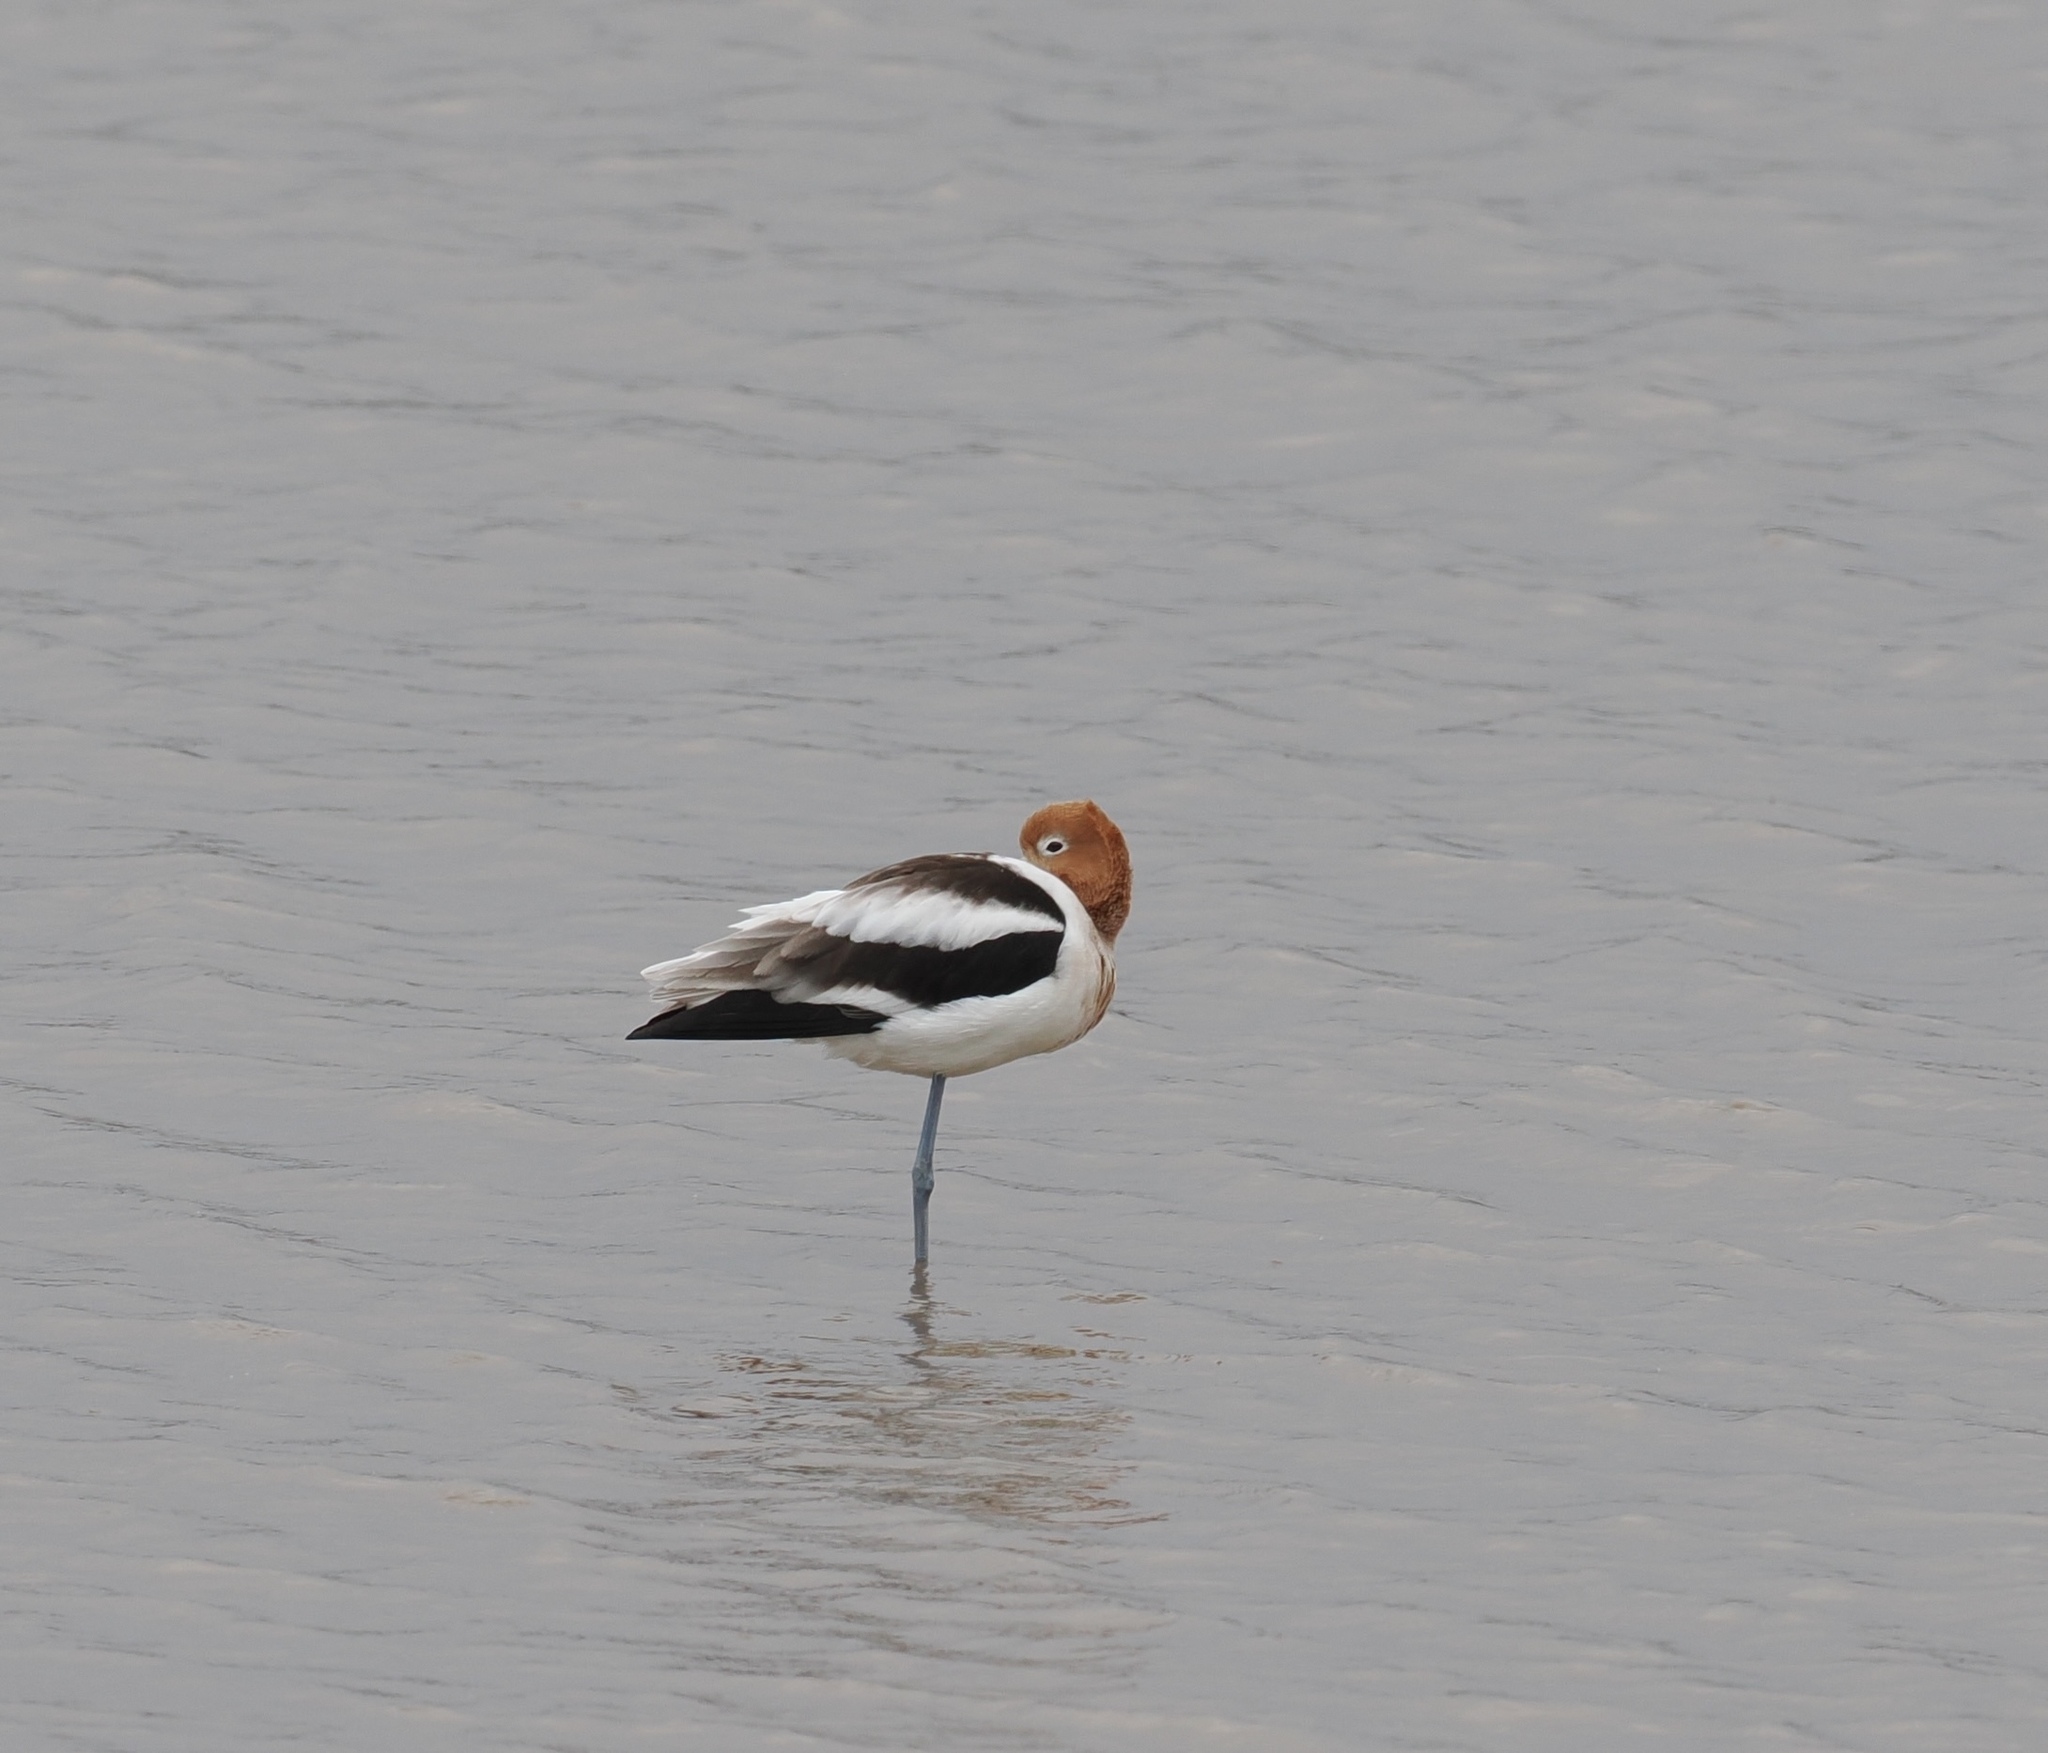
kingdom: Animalia
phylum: Chordata
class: Aves
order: Charadriiformes
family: Recurvirostridae
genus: Recurvirostra
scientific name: Recurvirostra americana
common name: American avocet
